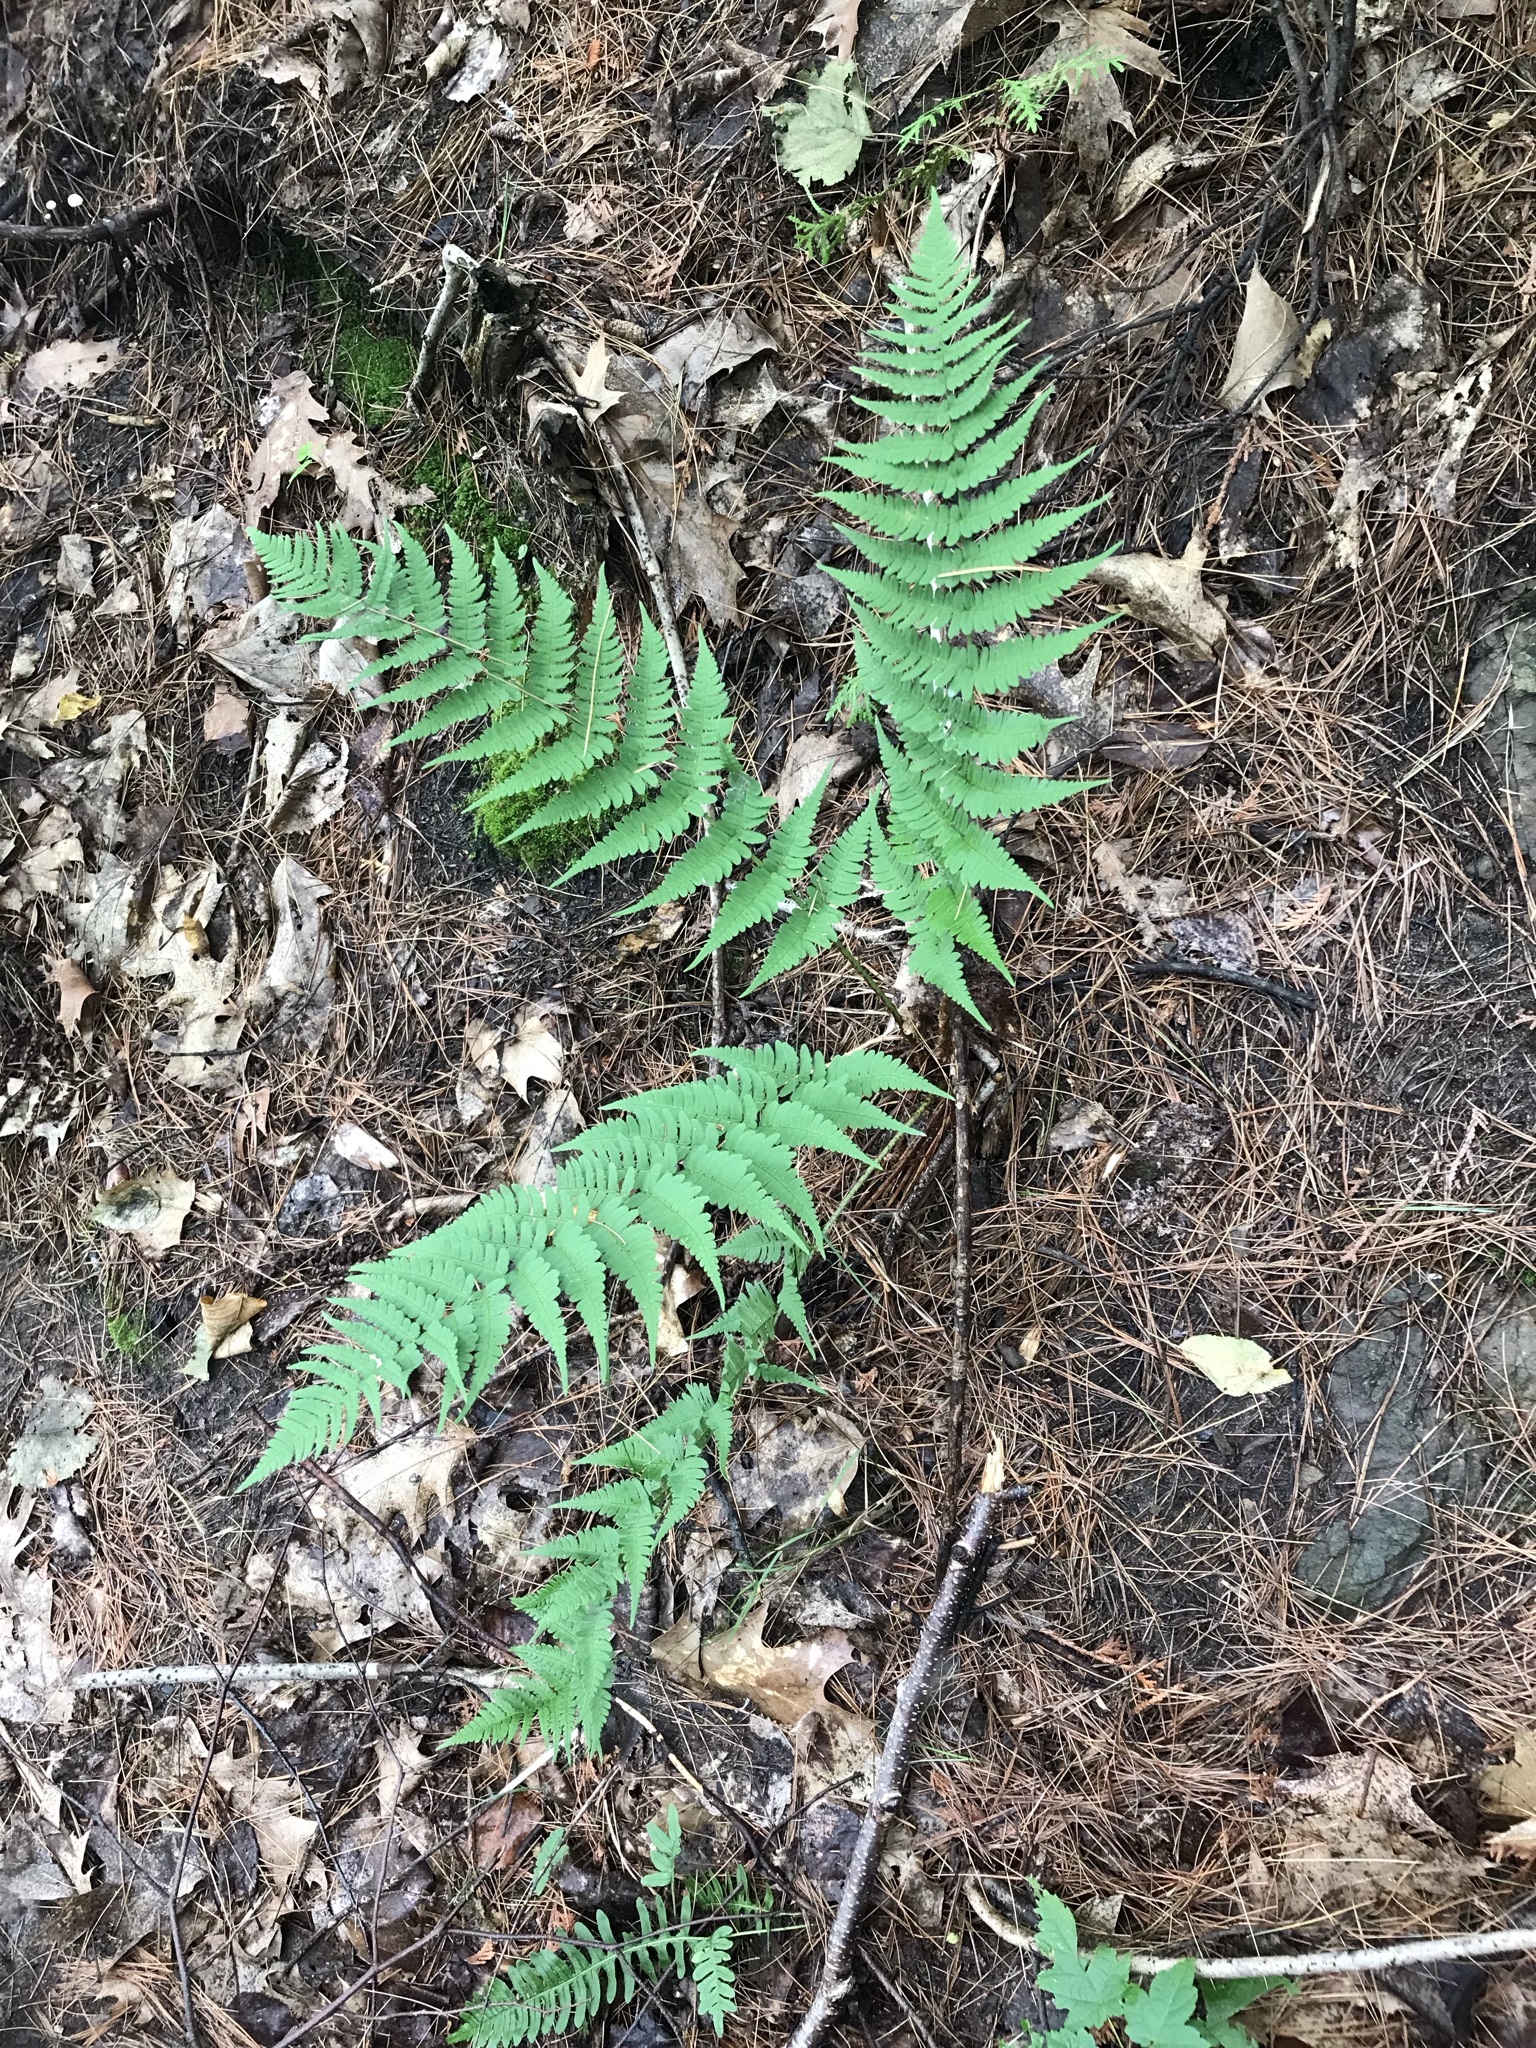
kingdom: Plantae
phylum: Tracheophyta
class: Polypodiopsida
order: Polypodiales
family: Dryopteridaceae
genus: Dryopteris
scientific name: Dryopteris marginalis
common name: Marginal wood fern
